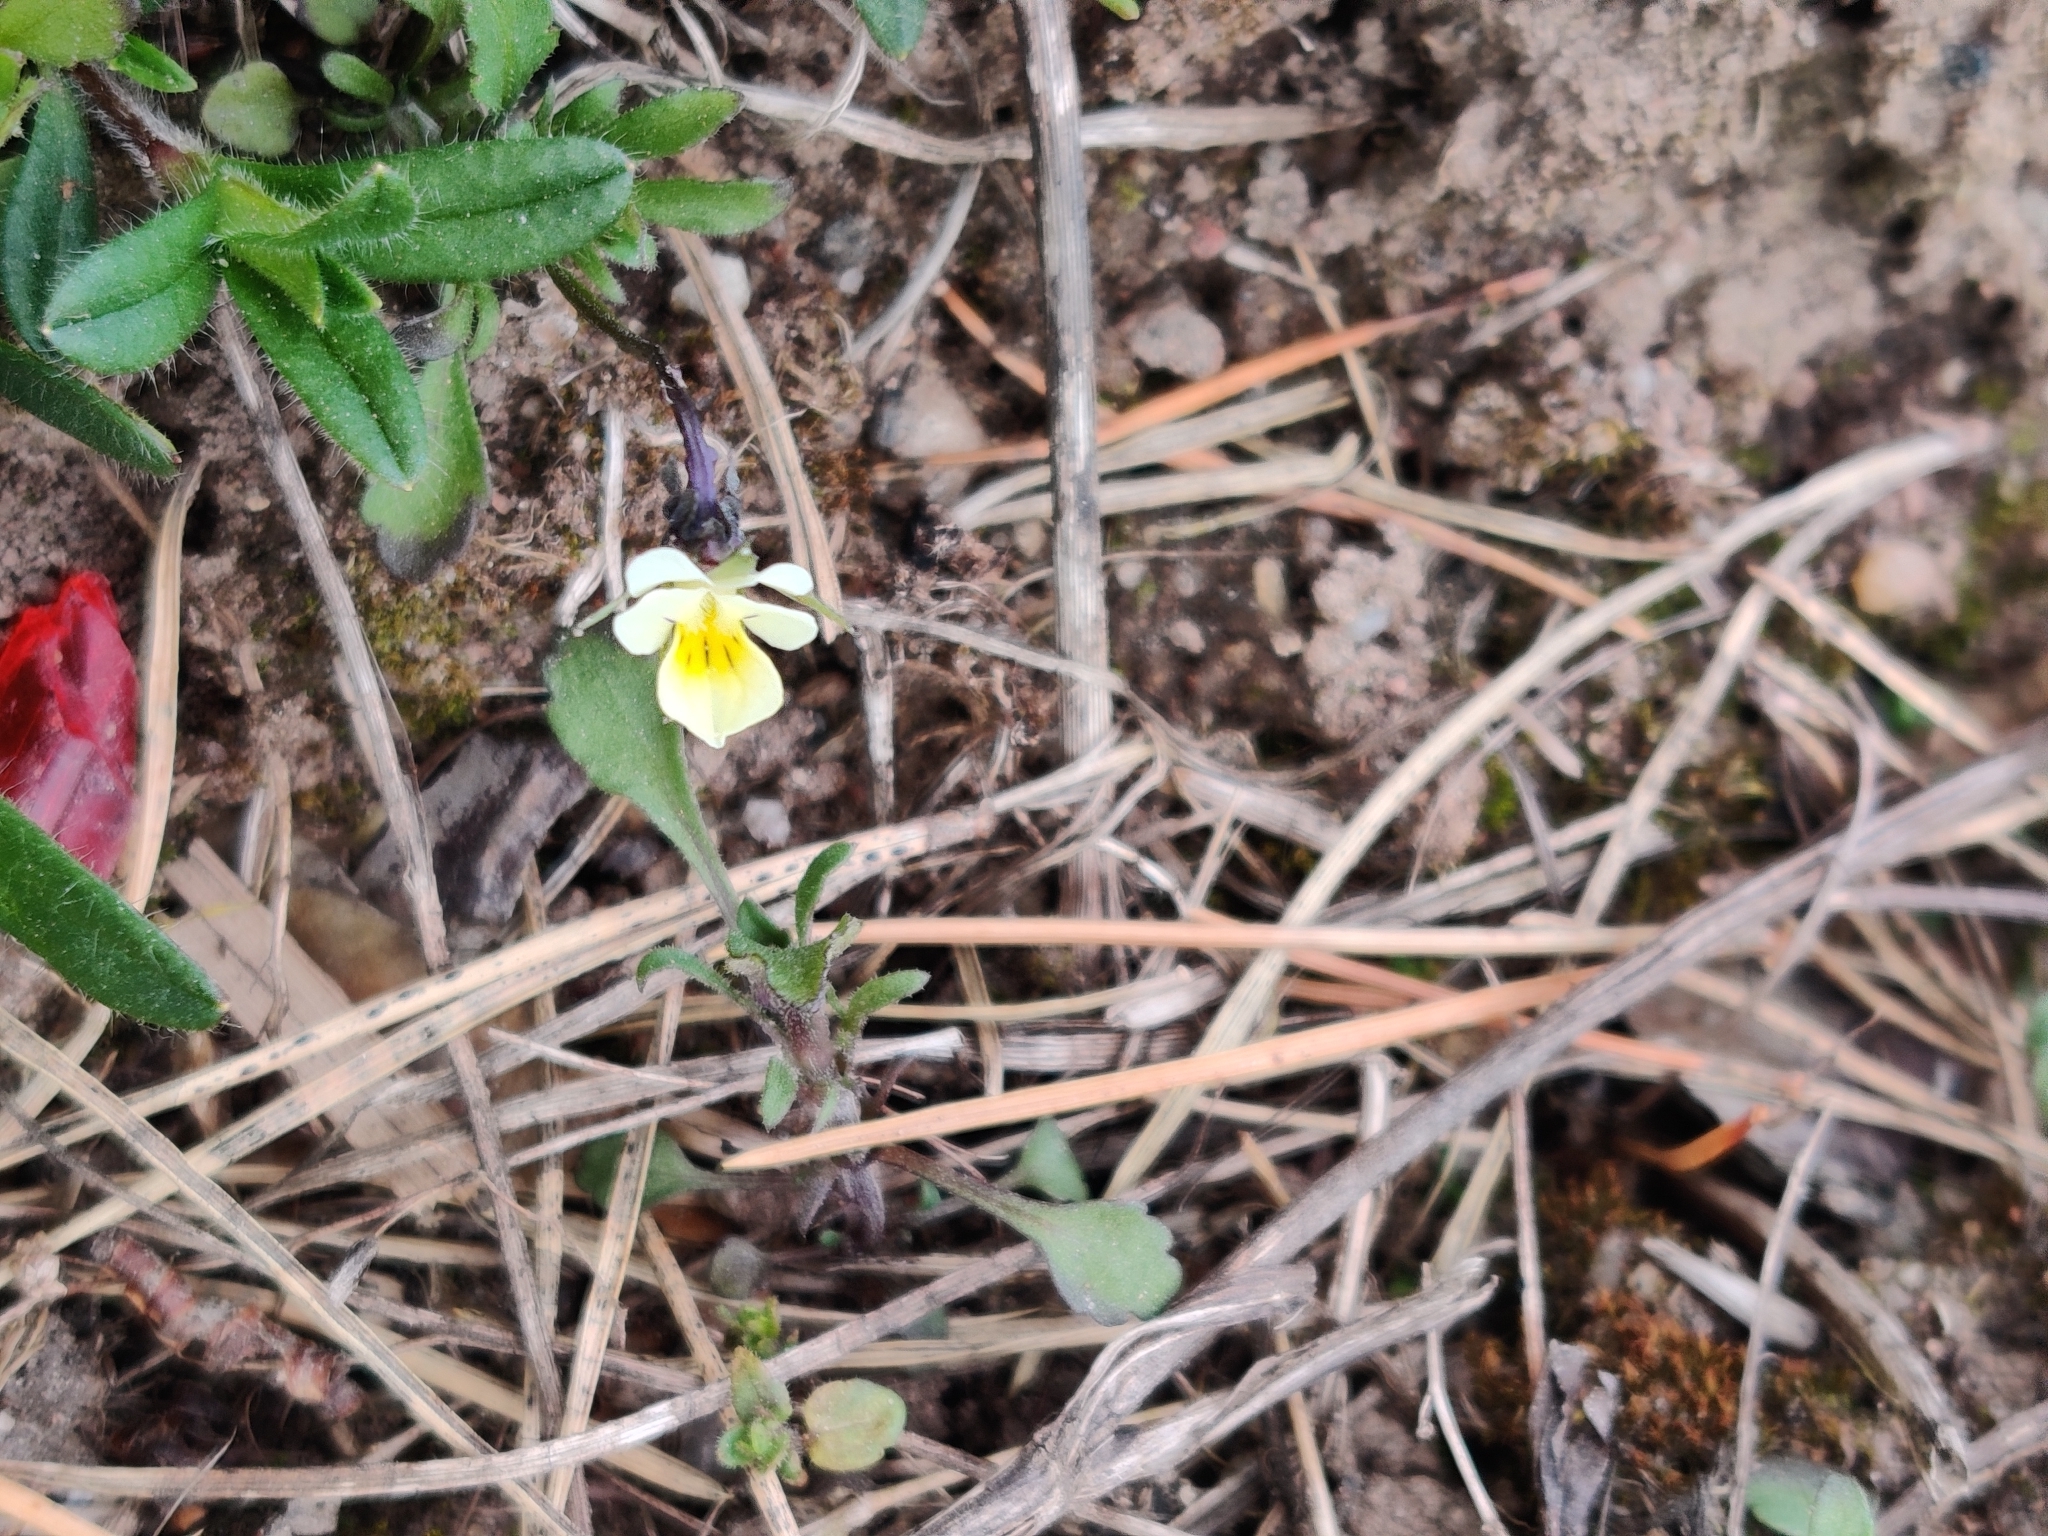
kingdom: Plantae
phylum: Tracheophyta
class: Magnoliopsida
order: Malpighiales
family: Violaceae
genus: Viola
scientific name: Viola arvensis
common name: Field pansy
